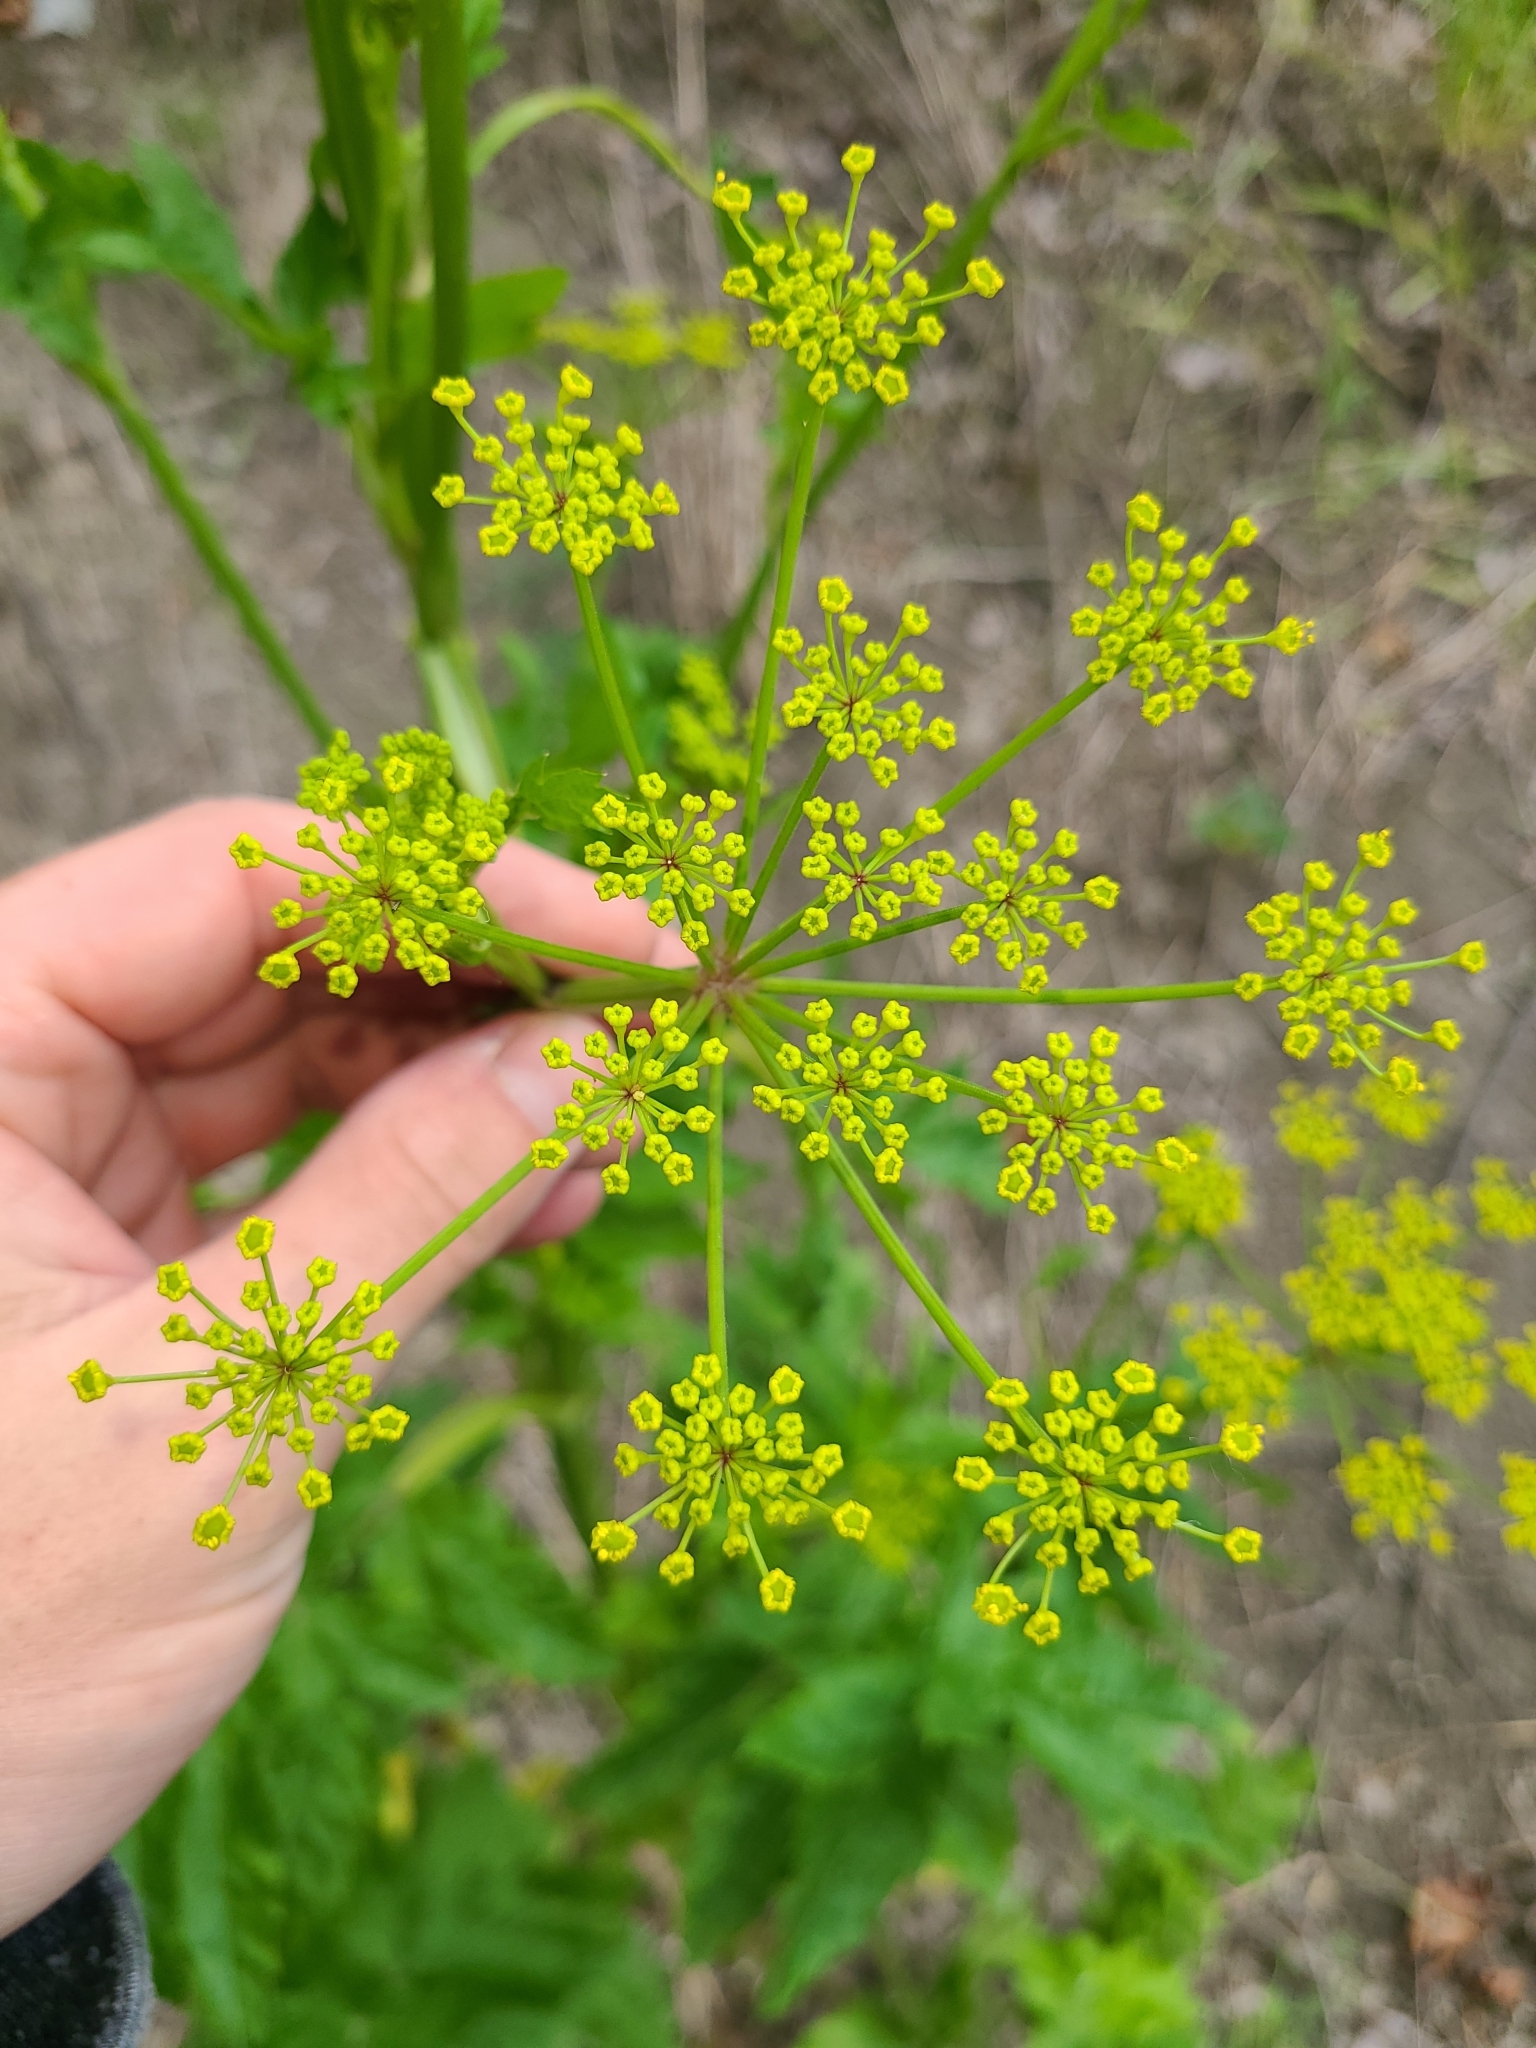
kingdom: Plantae
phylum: Tracheophyta
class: Magnoliopsida
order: Apiales
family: Apiaceae
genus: Pastinaca
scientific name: Pastinaca sativa
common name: Wild parsnip
